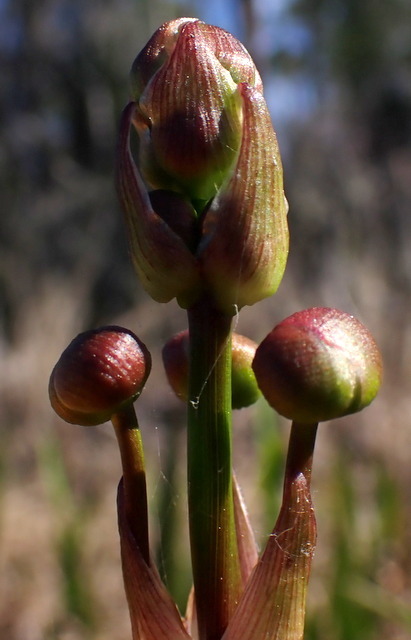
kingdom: Plantae
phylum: Tracheophyta
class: Liliopsida
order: Alismatales
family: Alismataceae
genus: Sagittaria
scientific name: Sagittaria lancifolia
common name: Lance-leaf arrowhead
